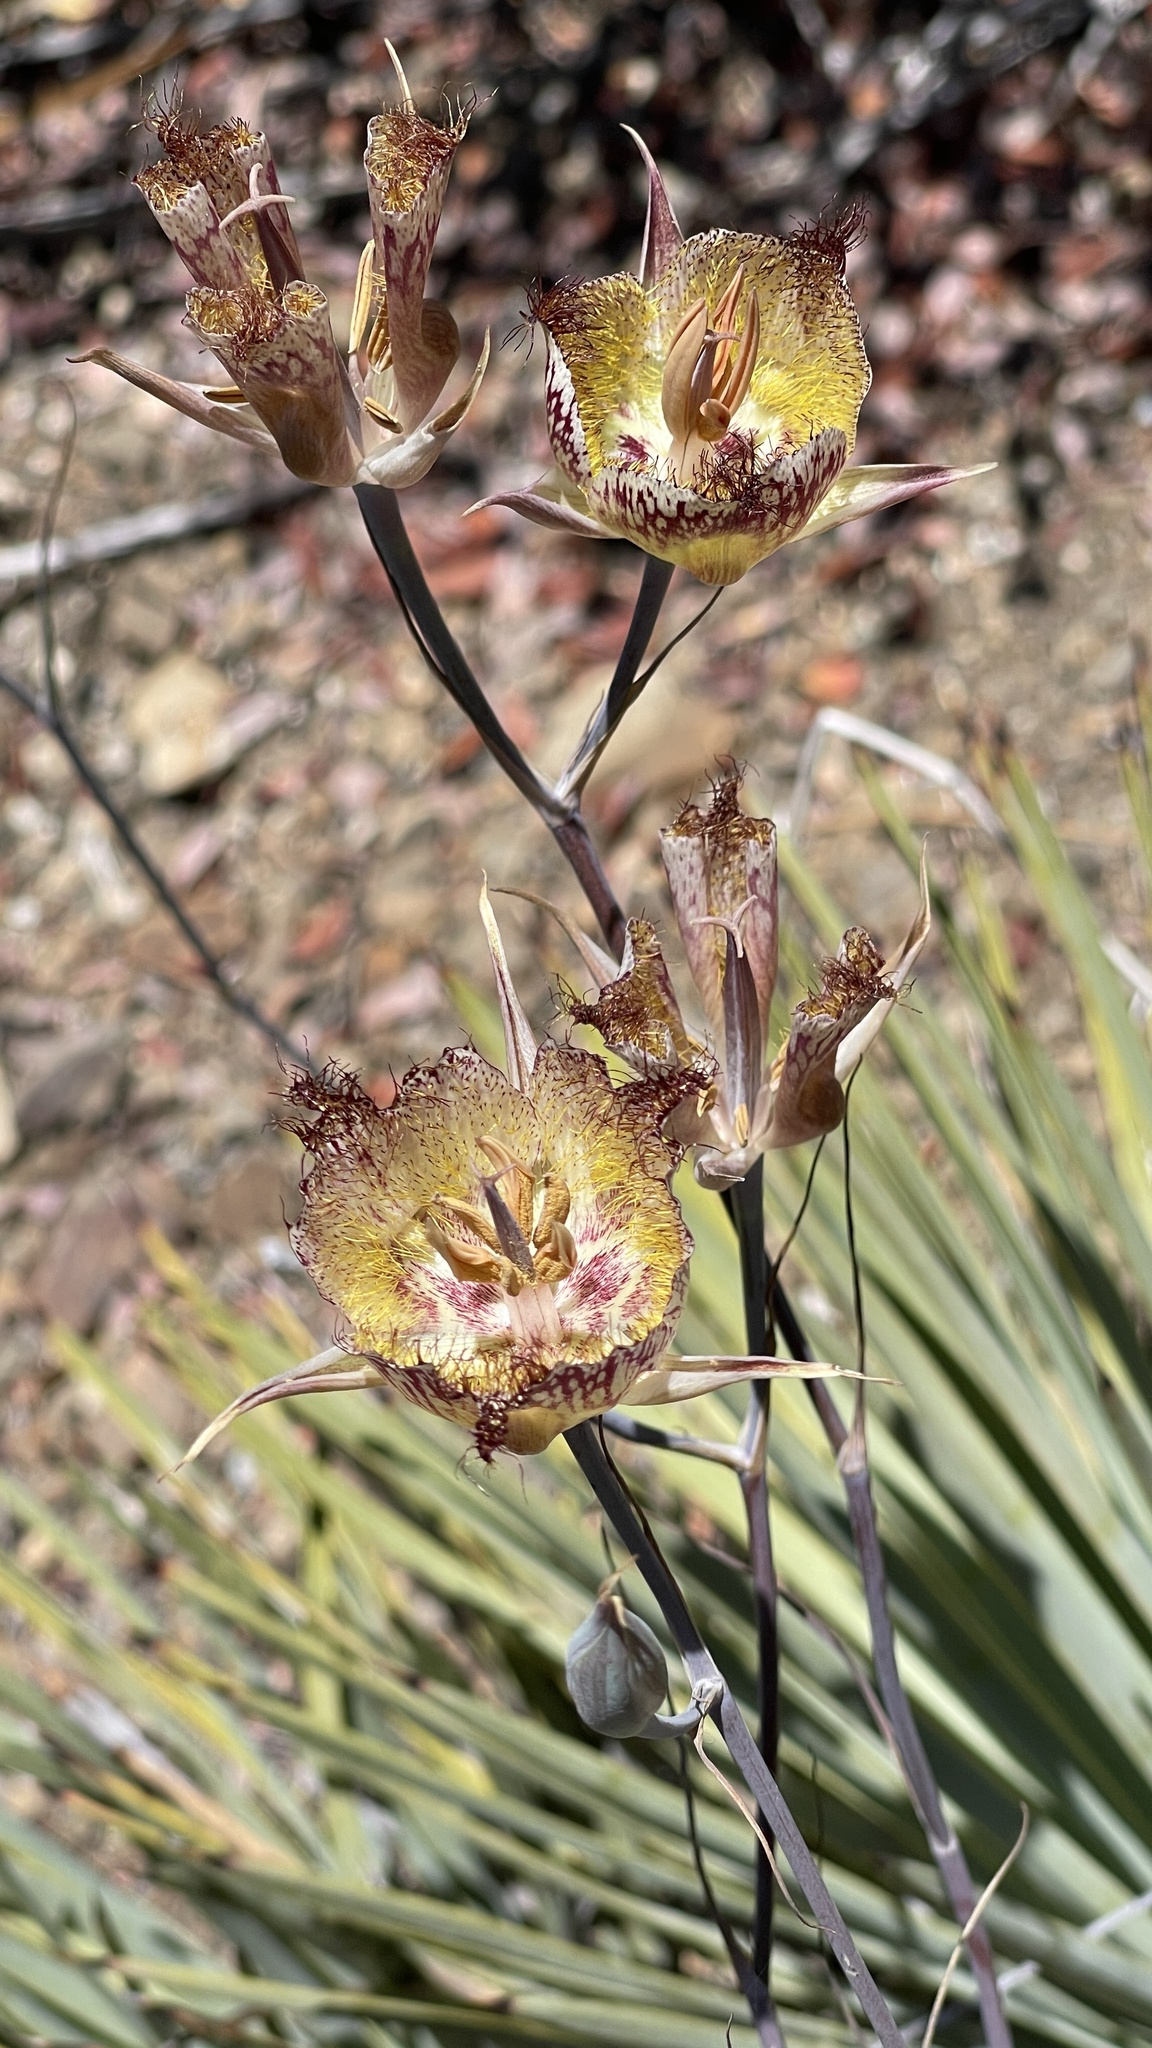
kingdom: Plantae
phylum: Tracheophyta
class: Liliopsida
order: Liliales
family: Liliaceae
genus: Calochortus
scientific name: Calochortus fimbriatus
